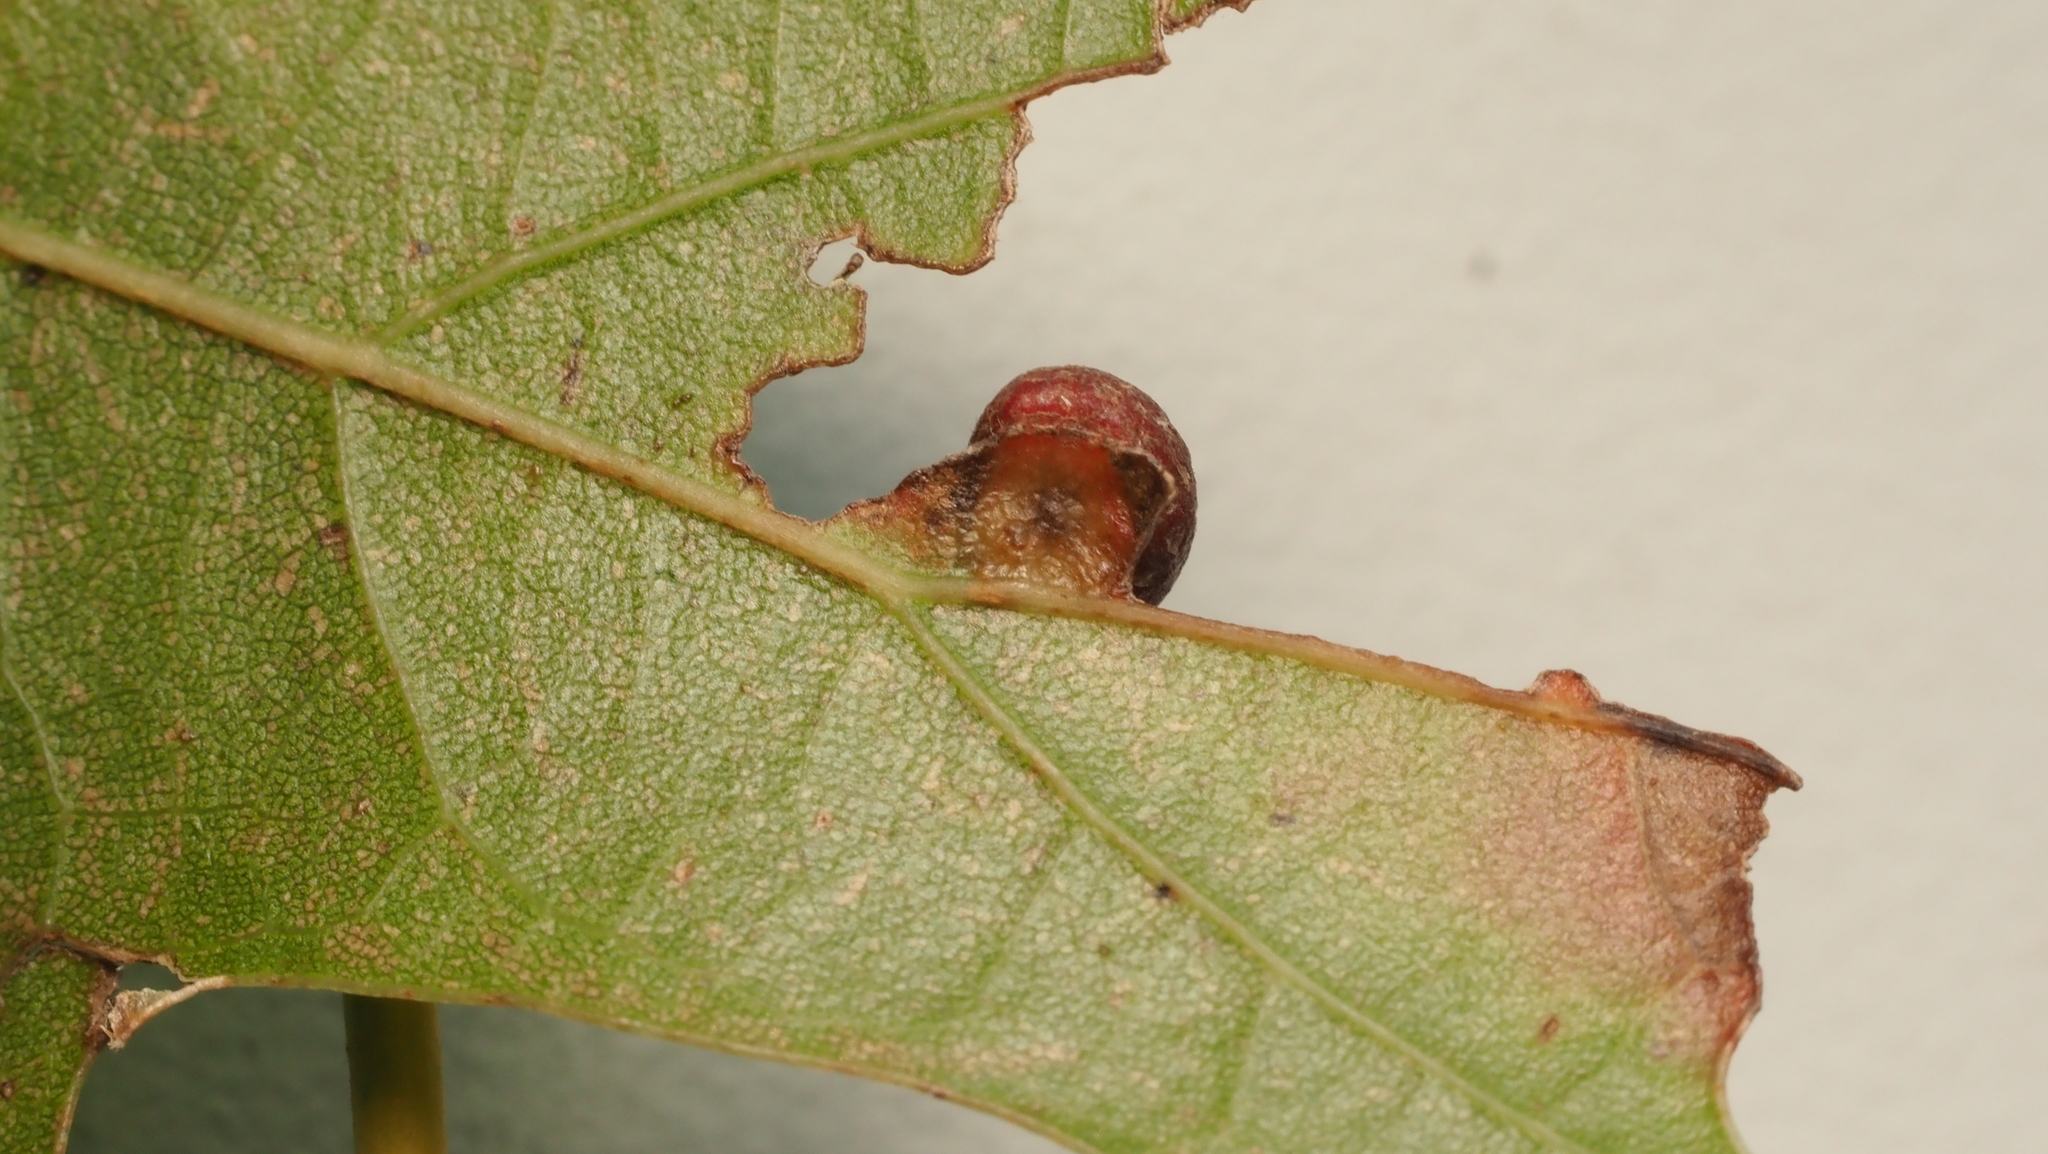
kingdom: Animalia
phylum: Arthropoda
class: Insecta
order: Diptera
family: Cecidomyiidae
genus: Polystepha
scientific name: Polystepha pilulae
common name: Oak leaf gall midge
